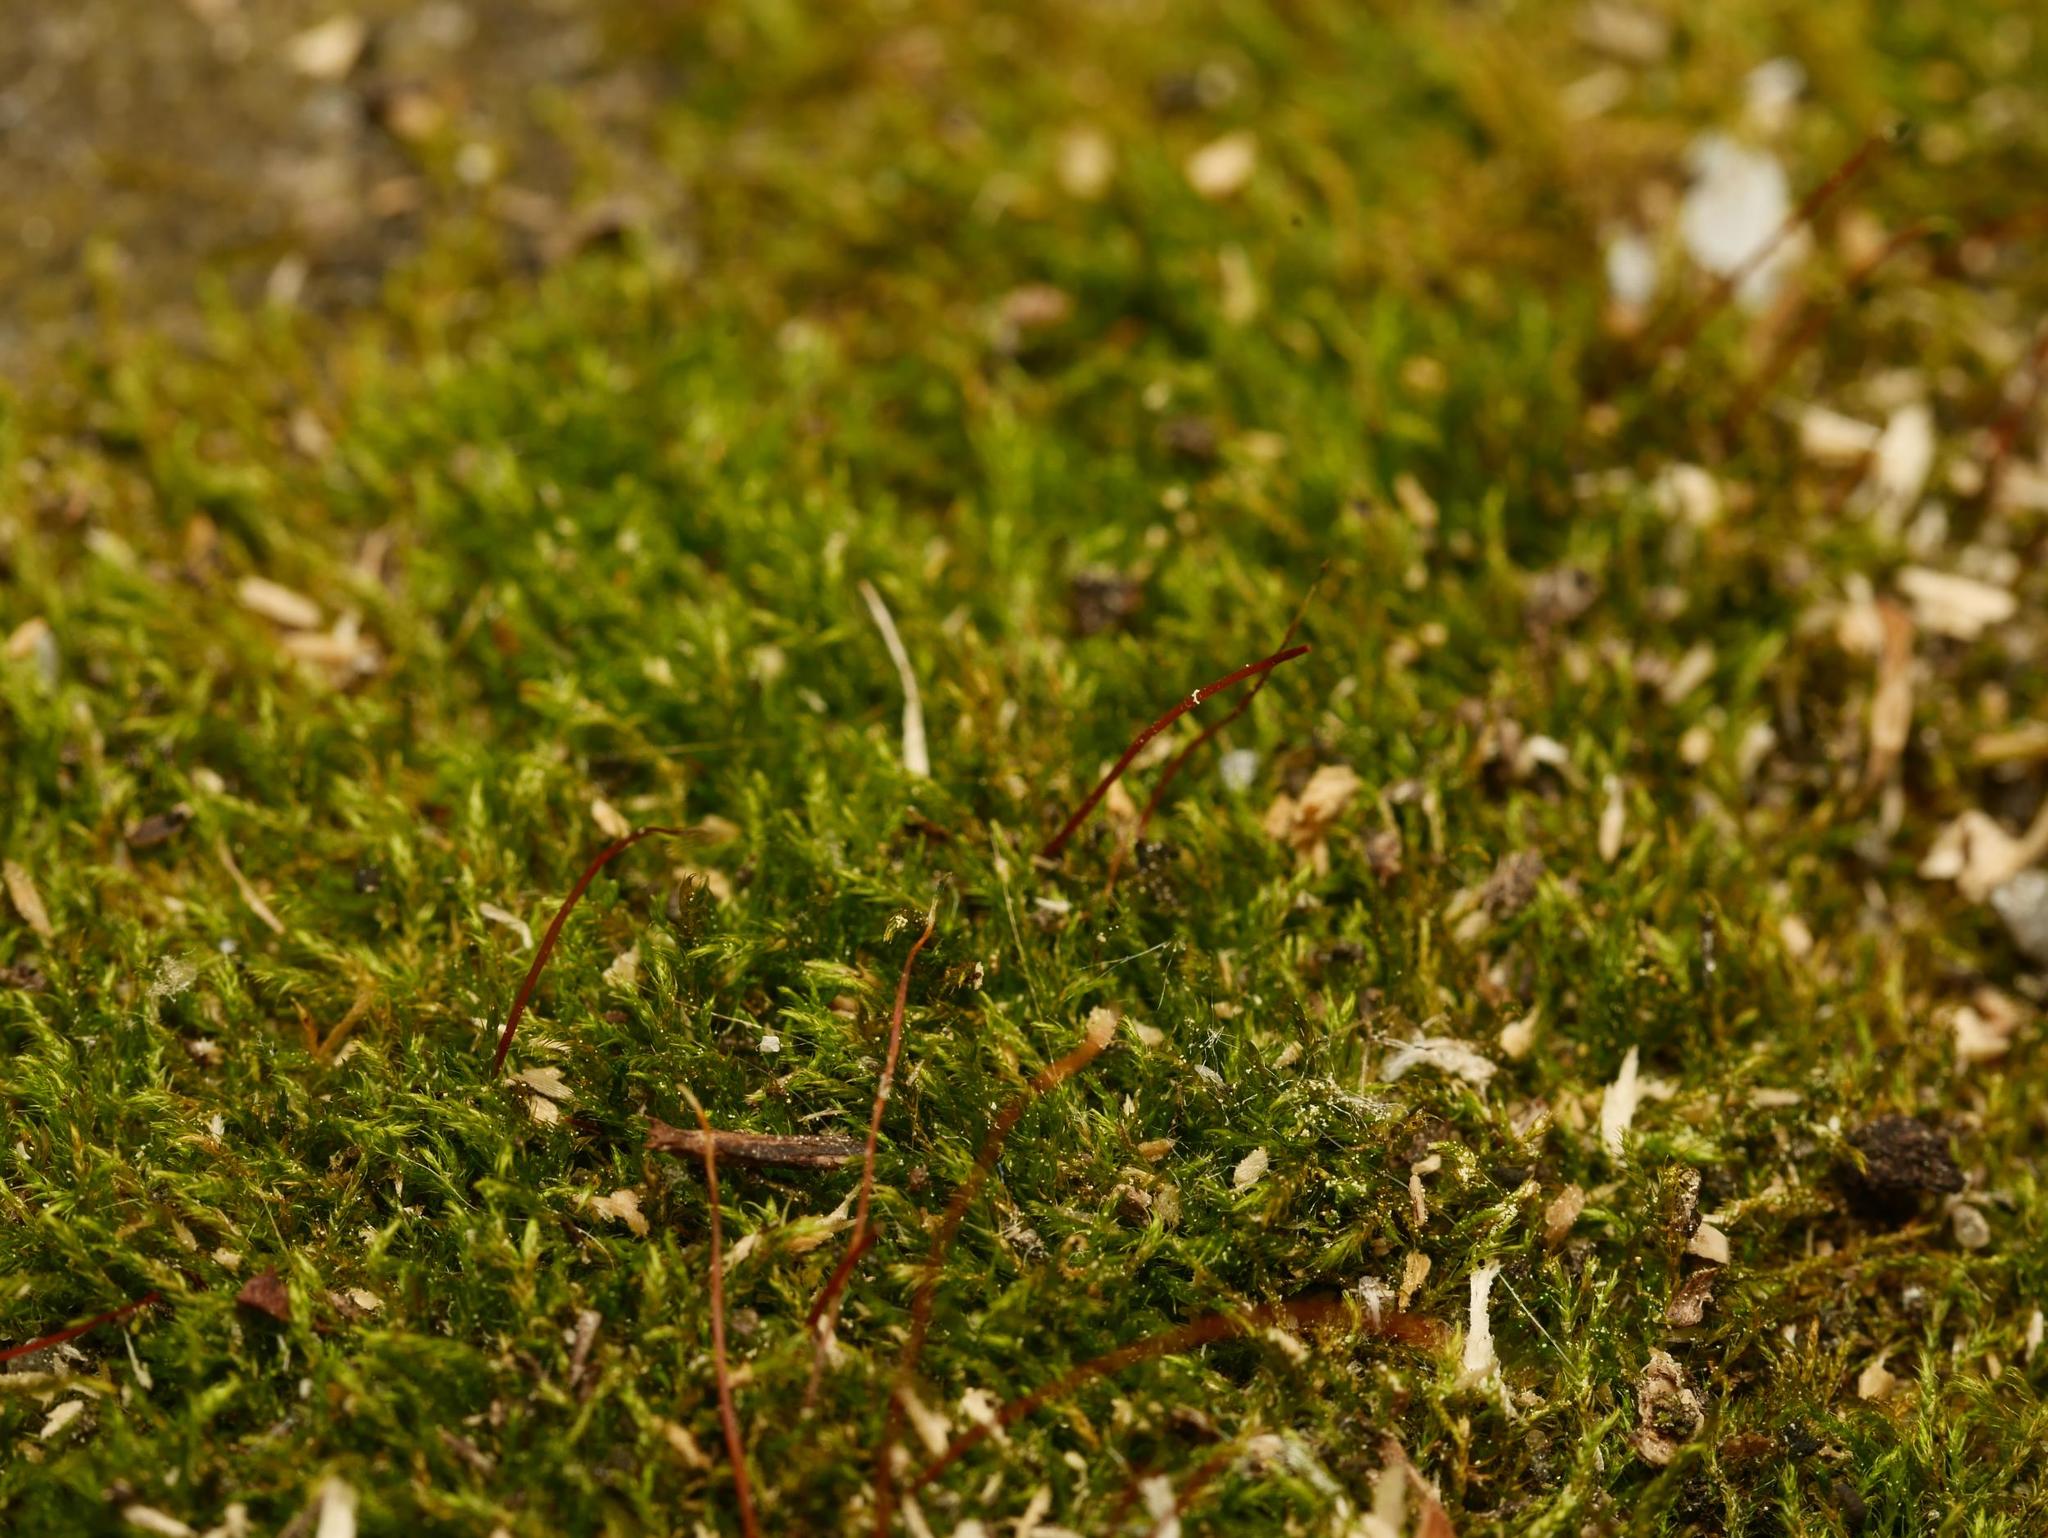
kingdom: Plantae
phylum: Bryophyta
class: Bryopsida
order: Hypnales
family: Amblystegiaceae
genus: Amblystegium
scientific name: Amblystegium serpens
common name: Jurkatzka's feather moss
